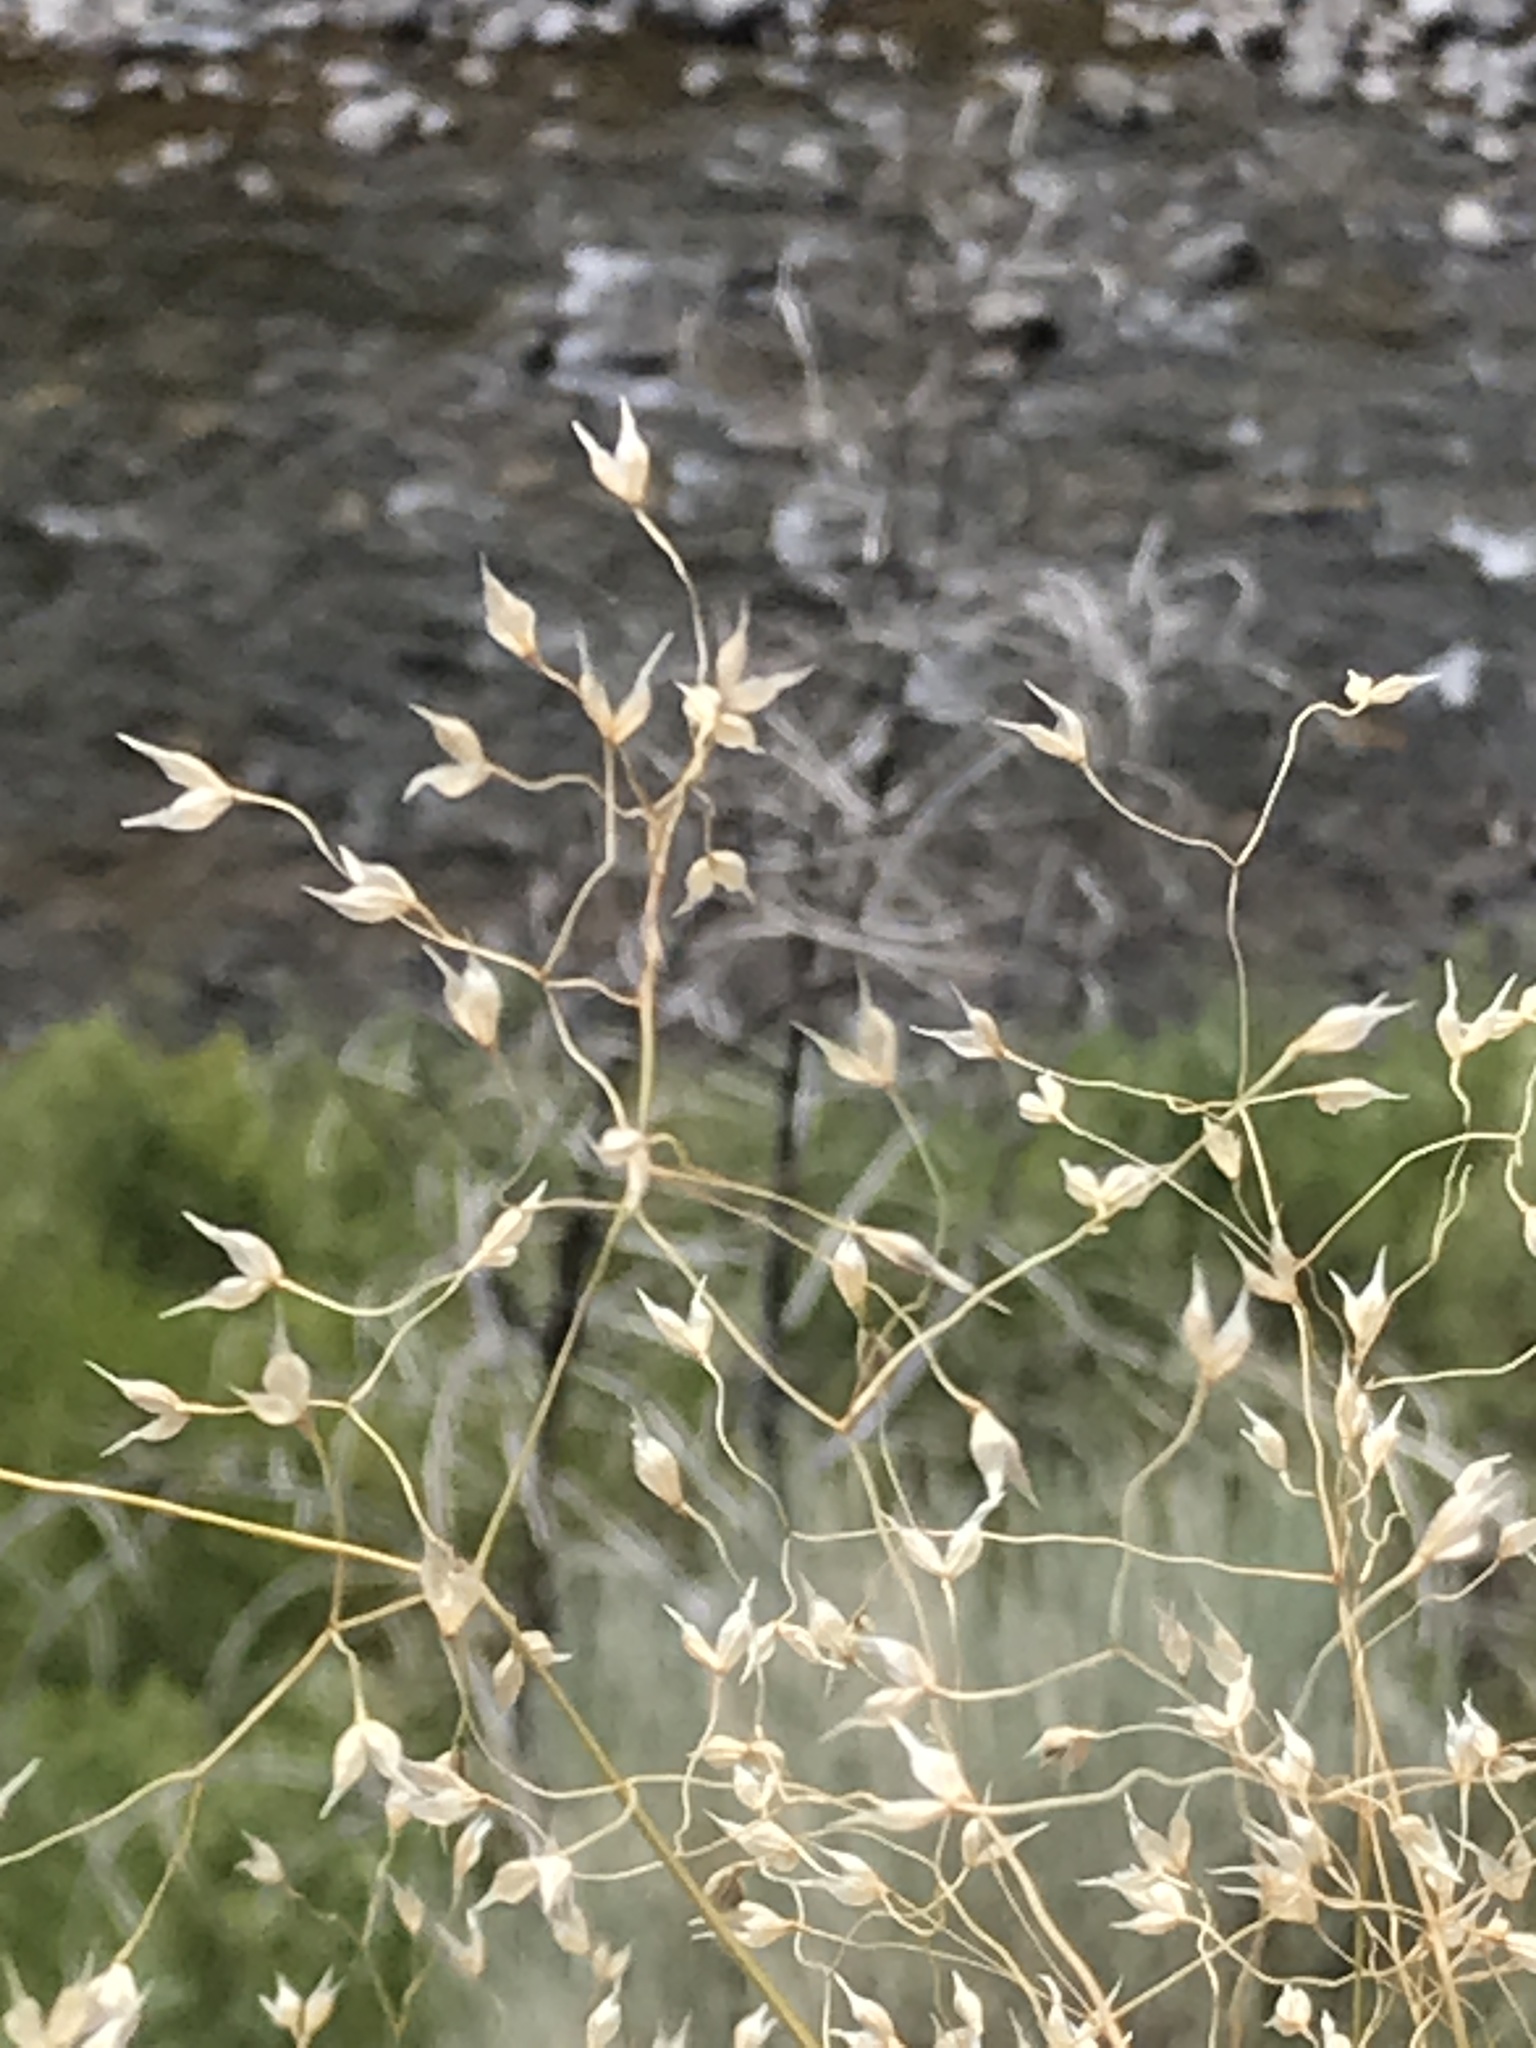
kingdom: Plantae
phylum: Tracheophyta
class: Liliopsida
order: Poales
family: Poaceae
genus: Eriocoma
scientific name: Eriocoma hymenoides
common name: Indian mountain ricegrass
